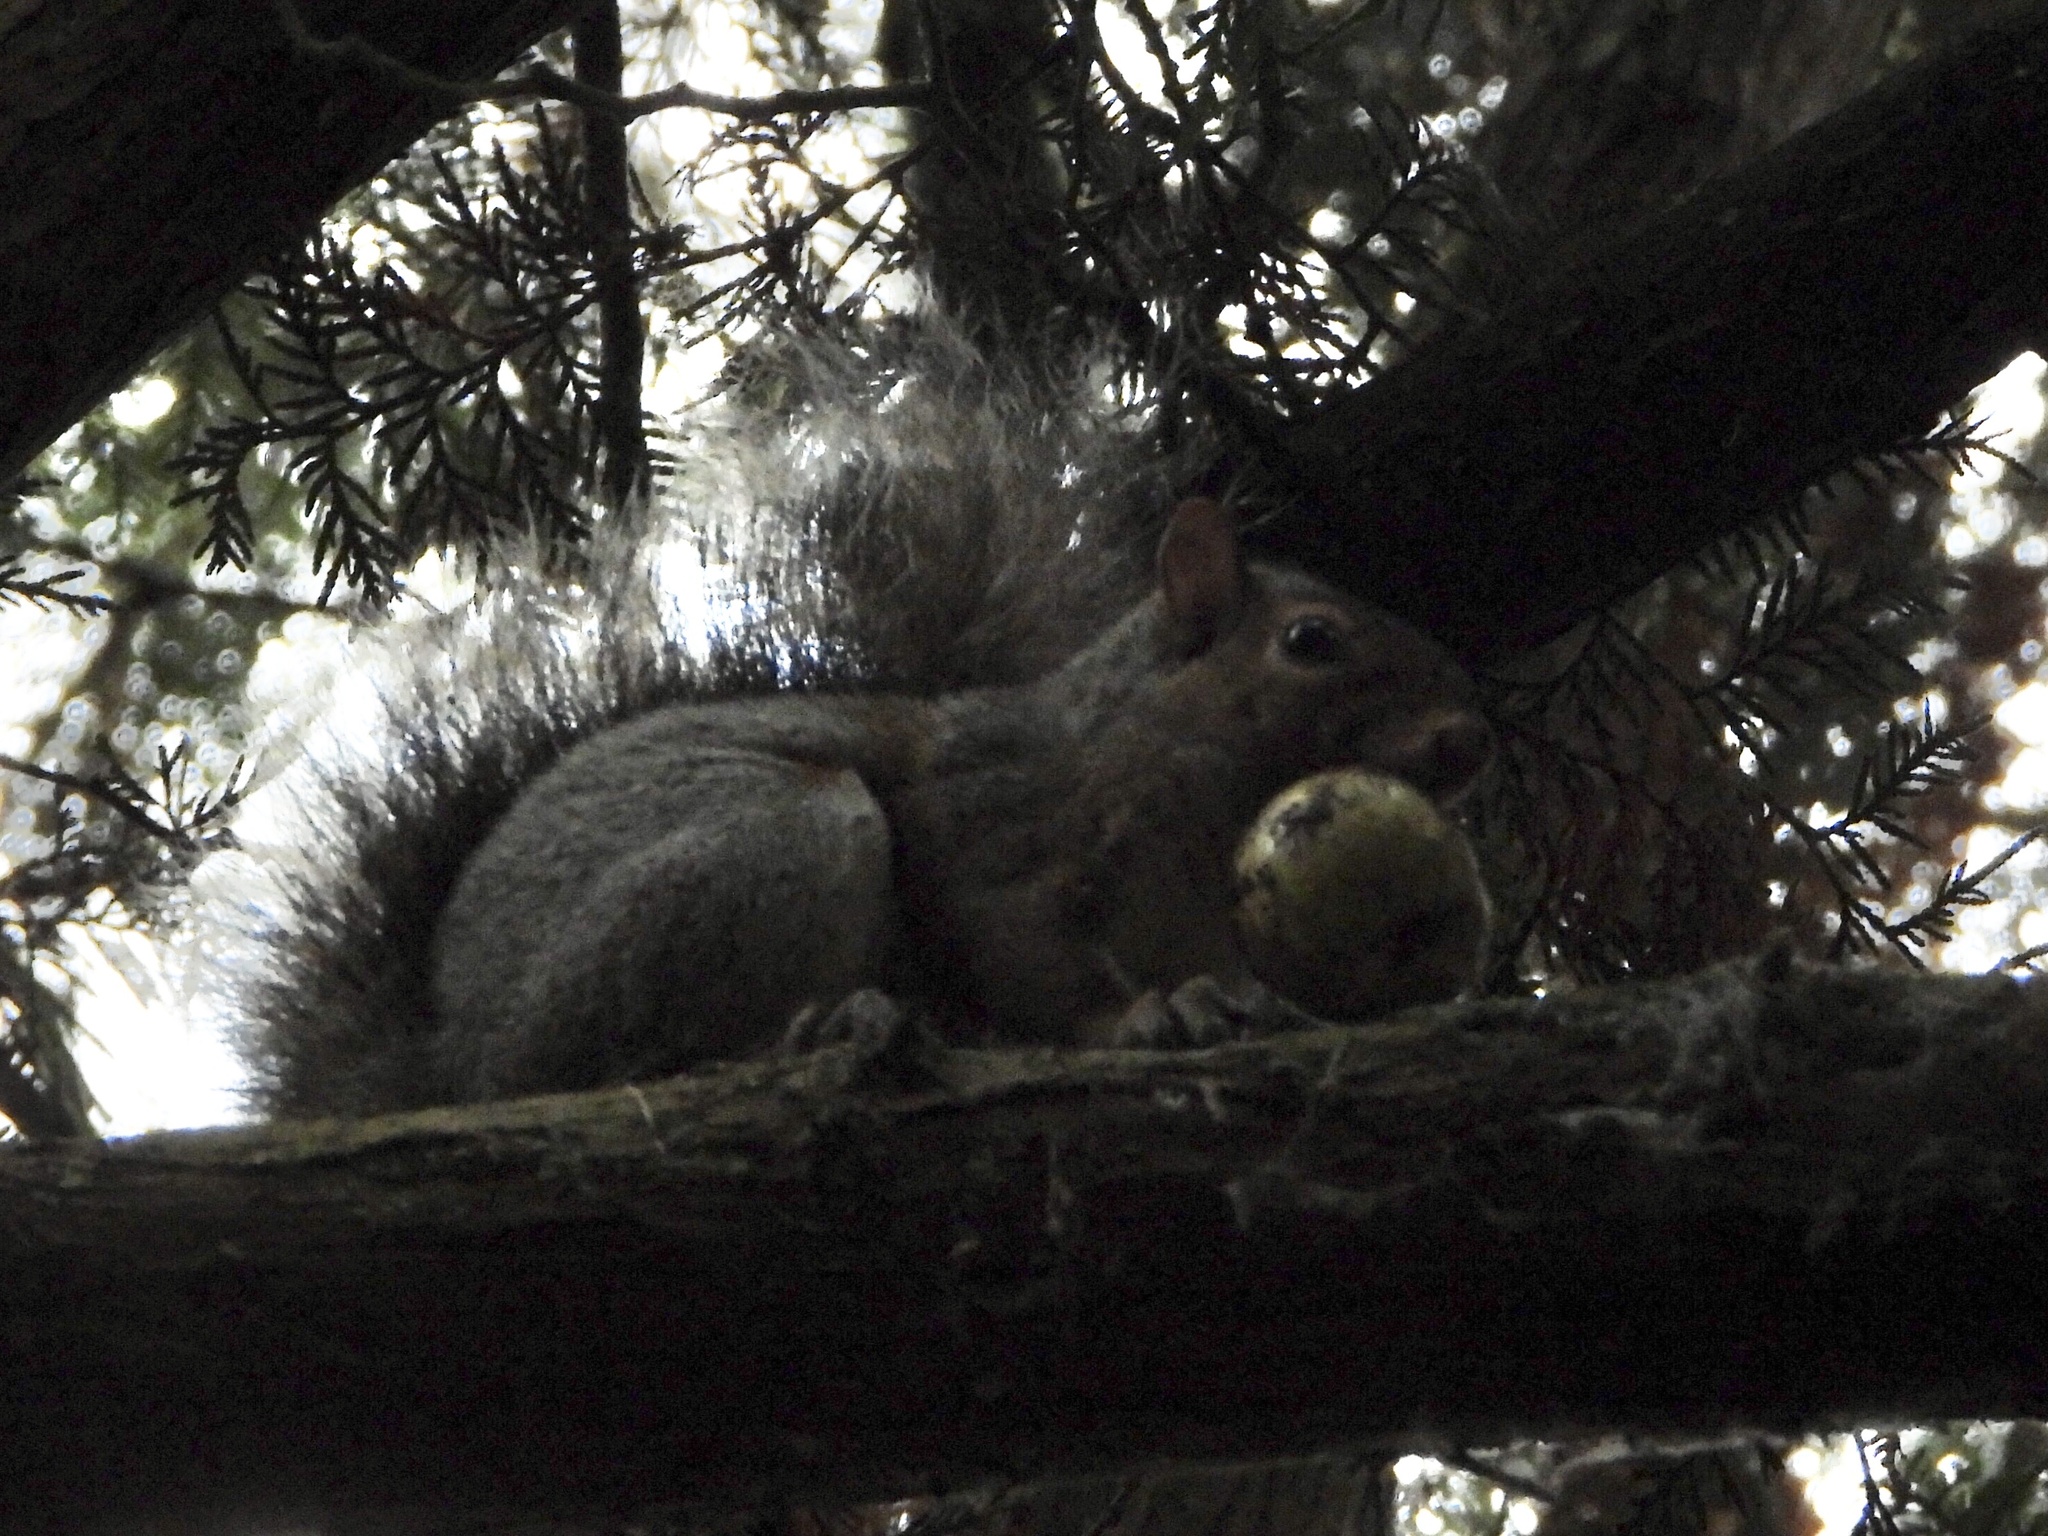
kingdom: Animalia
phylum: Chordata
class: Mammalia
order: Rodentia
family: Sciuridae
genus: Sciurus
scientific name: Sciurus carolinensis
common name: Eastern gray squirrel
